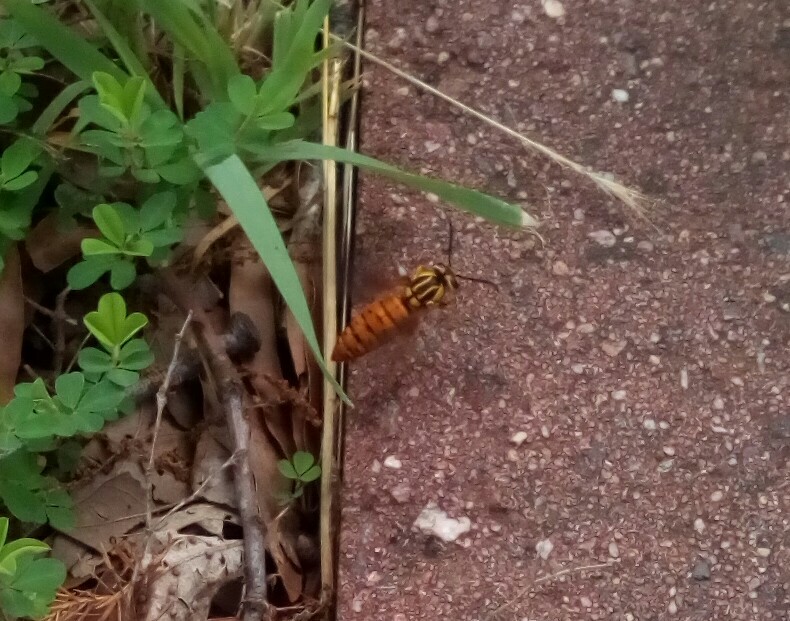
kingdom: Animalia
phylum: Arthropoda
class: Insecta
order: Hymenoptera
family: Vespidae
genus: Vespula
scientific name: Vespula squamosa
